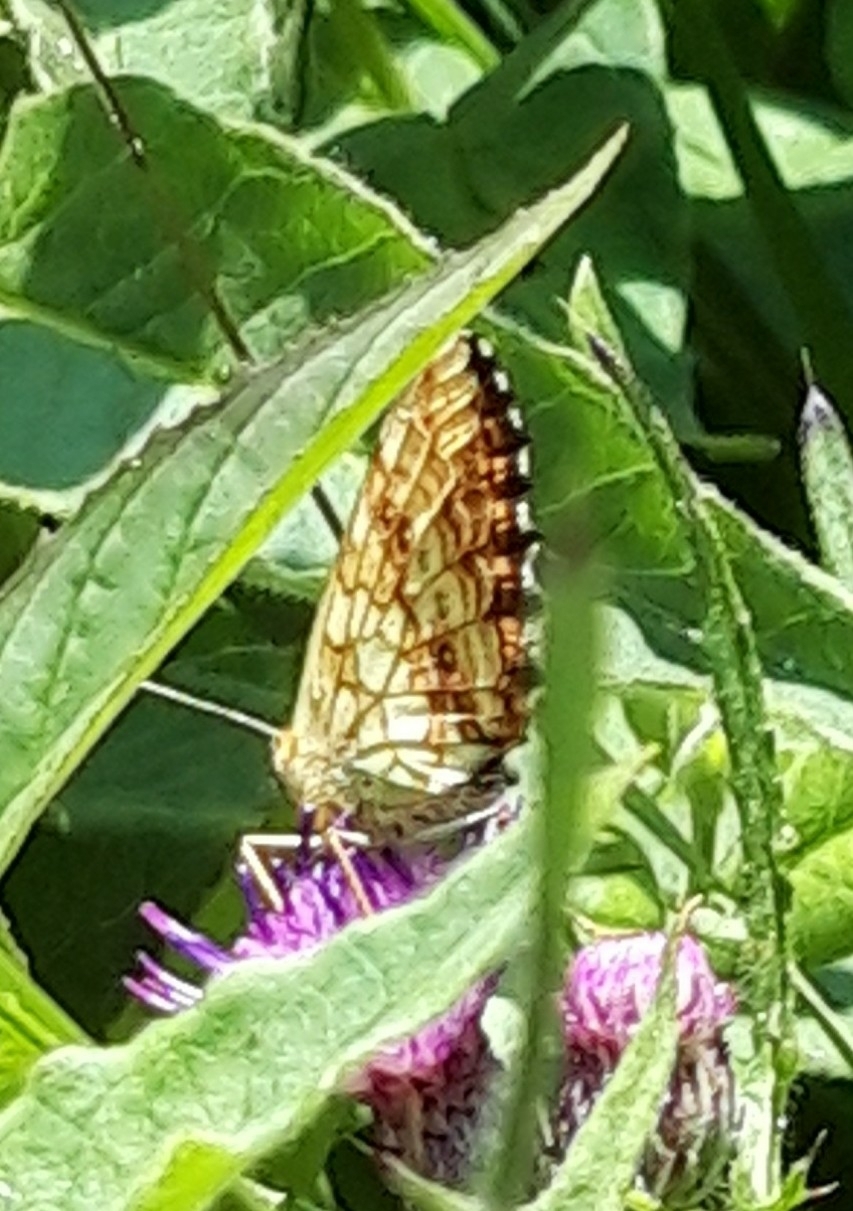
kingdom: Animalia
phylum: Arthropoda
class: Insecta
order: Lepidoptera
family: Nymphalidae
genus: Brenthis
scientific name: Brenthis ino
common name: Lesser marbled fritillary
